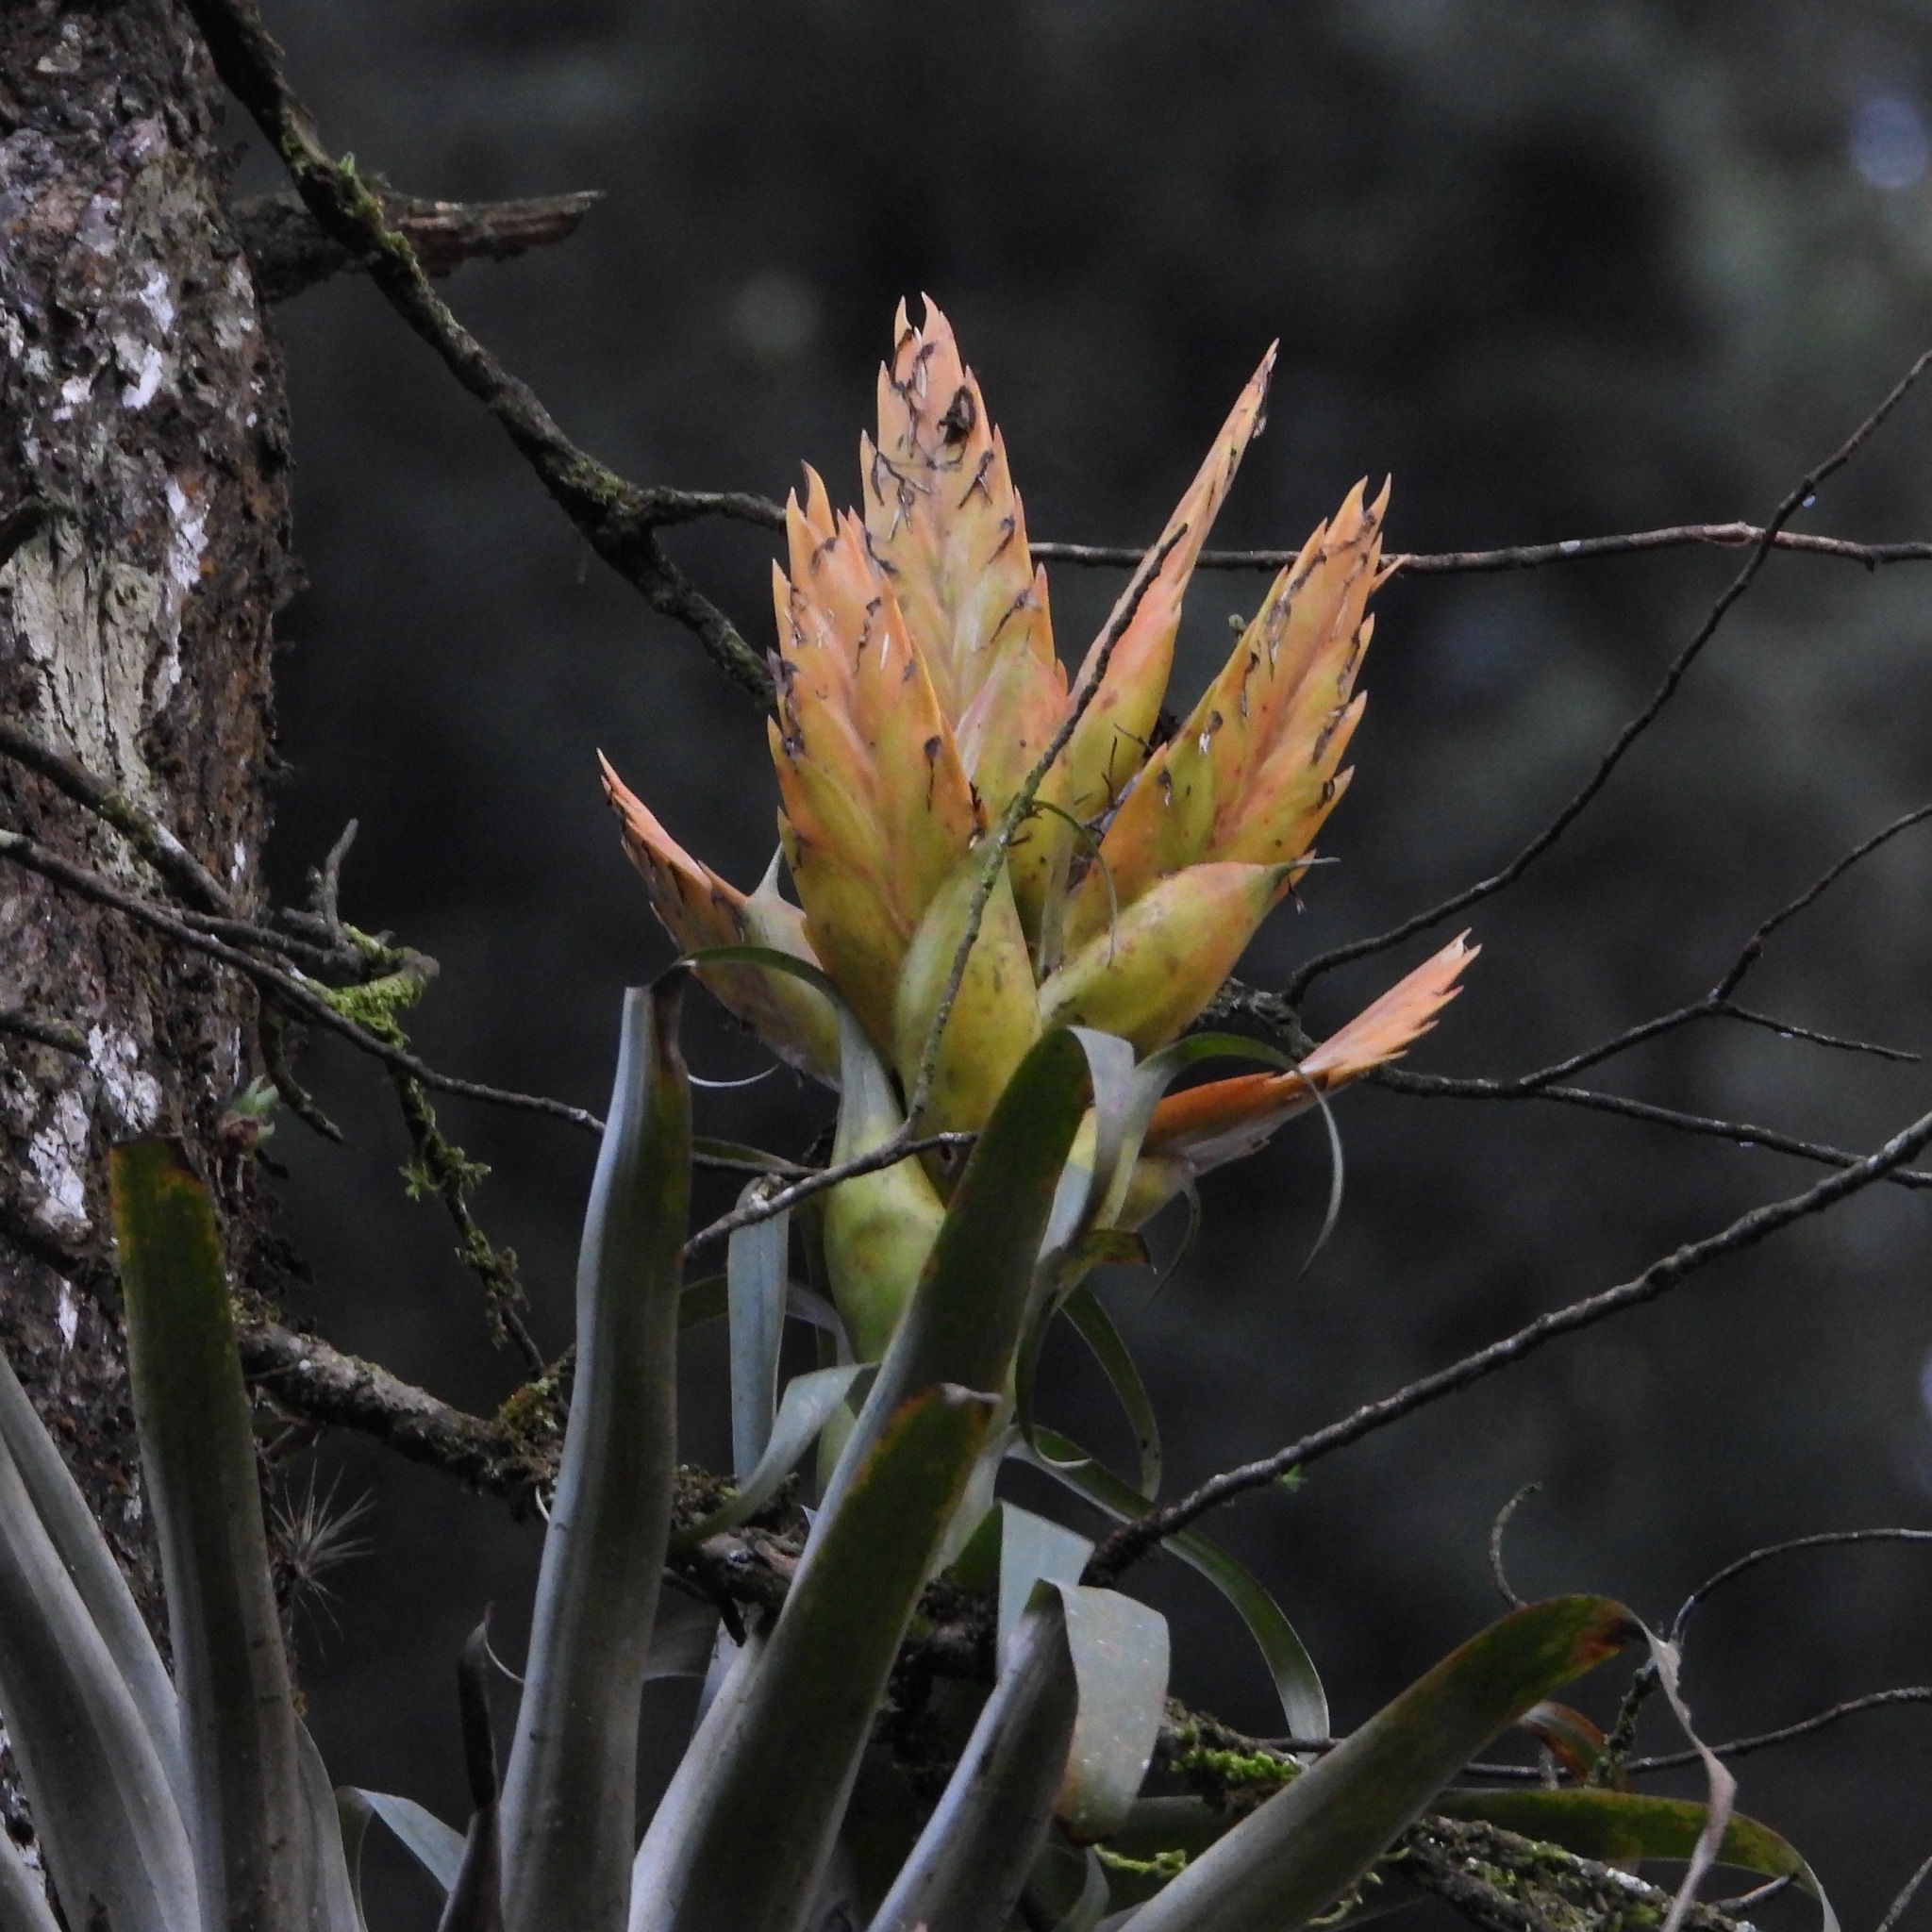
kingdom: Plantae
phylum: Tracheophyta
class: Liliopsida
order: Poales
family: Bromeliaceae
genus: Tillandsia
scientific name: Tillandsia ponderosa
